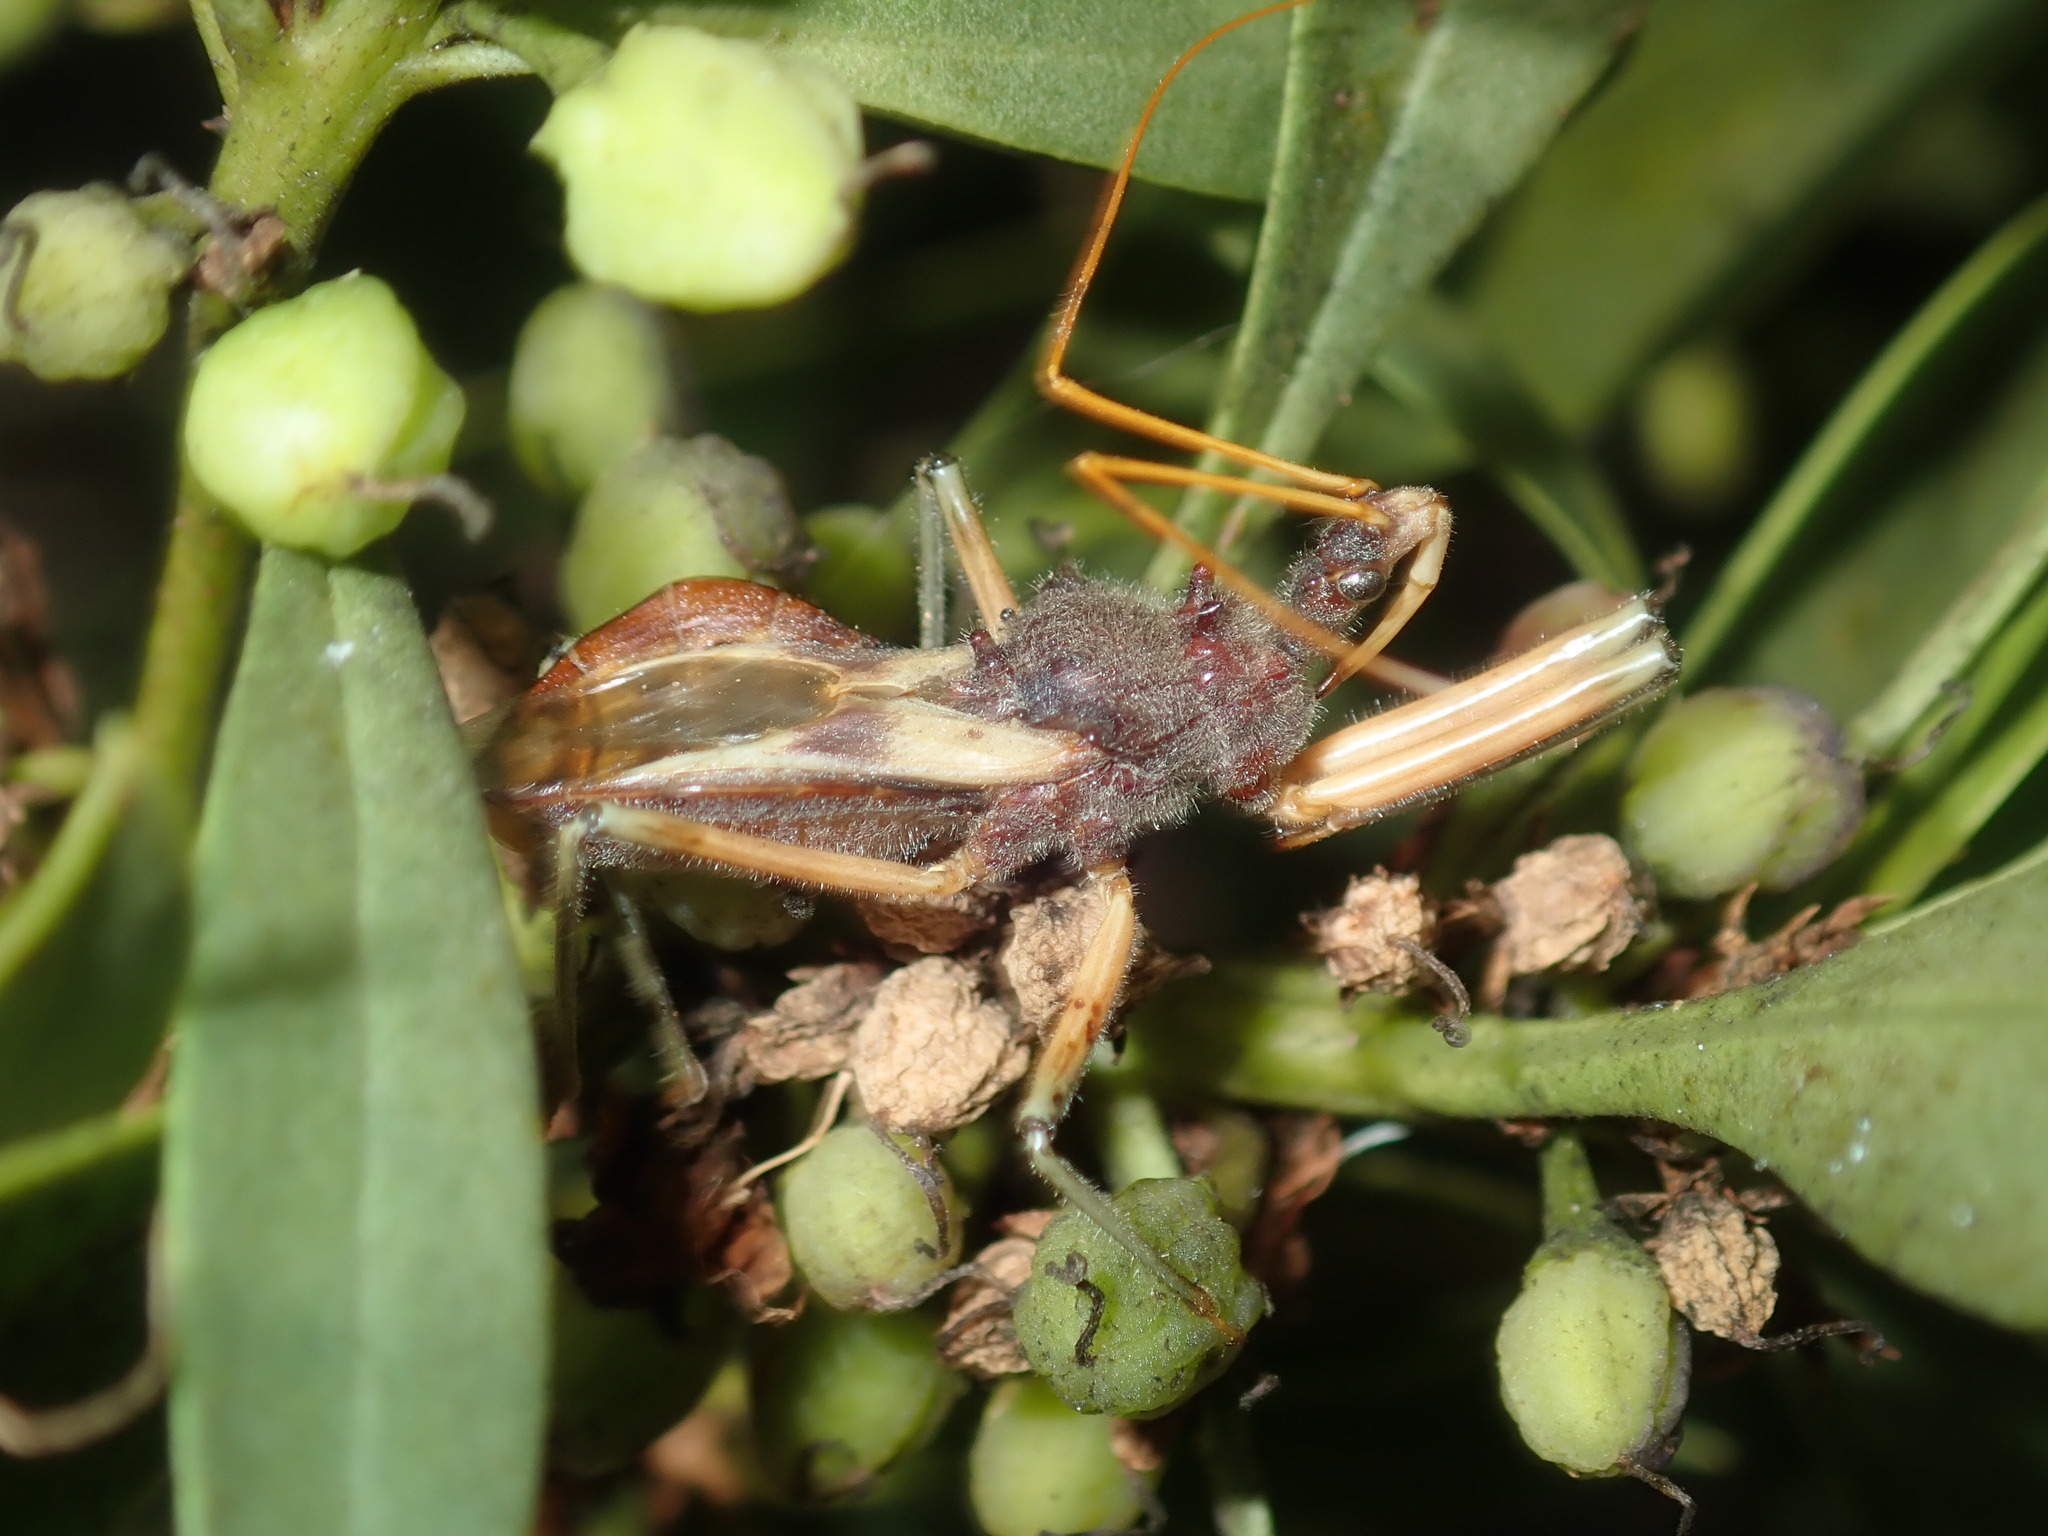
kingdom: Animalia
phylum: Arthropoda
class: Insecta
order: Hemiptera
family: Reduviidae
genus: Pristhesancus
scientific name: Pristhesancus plagipennis
